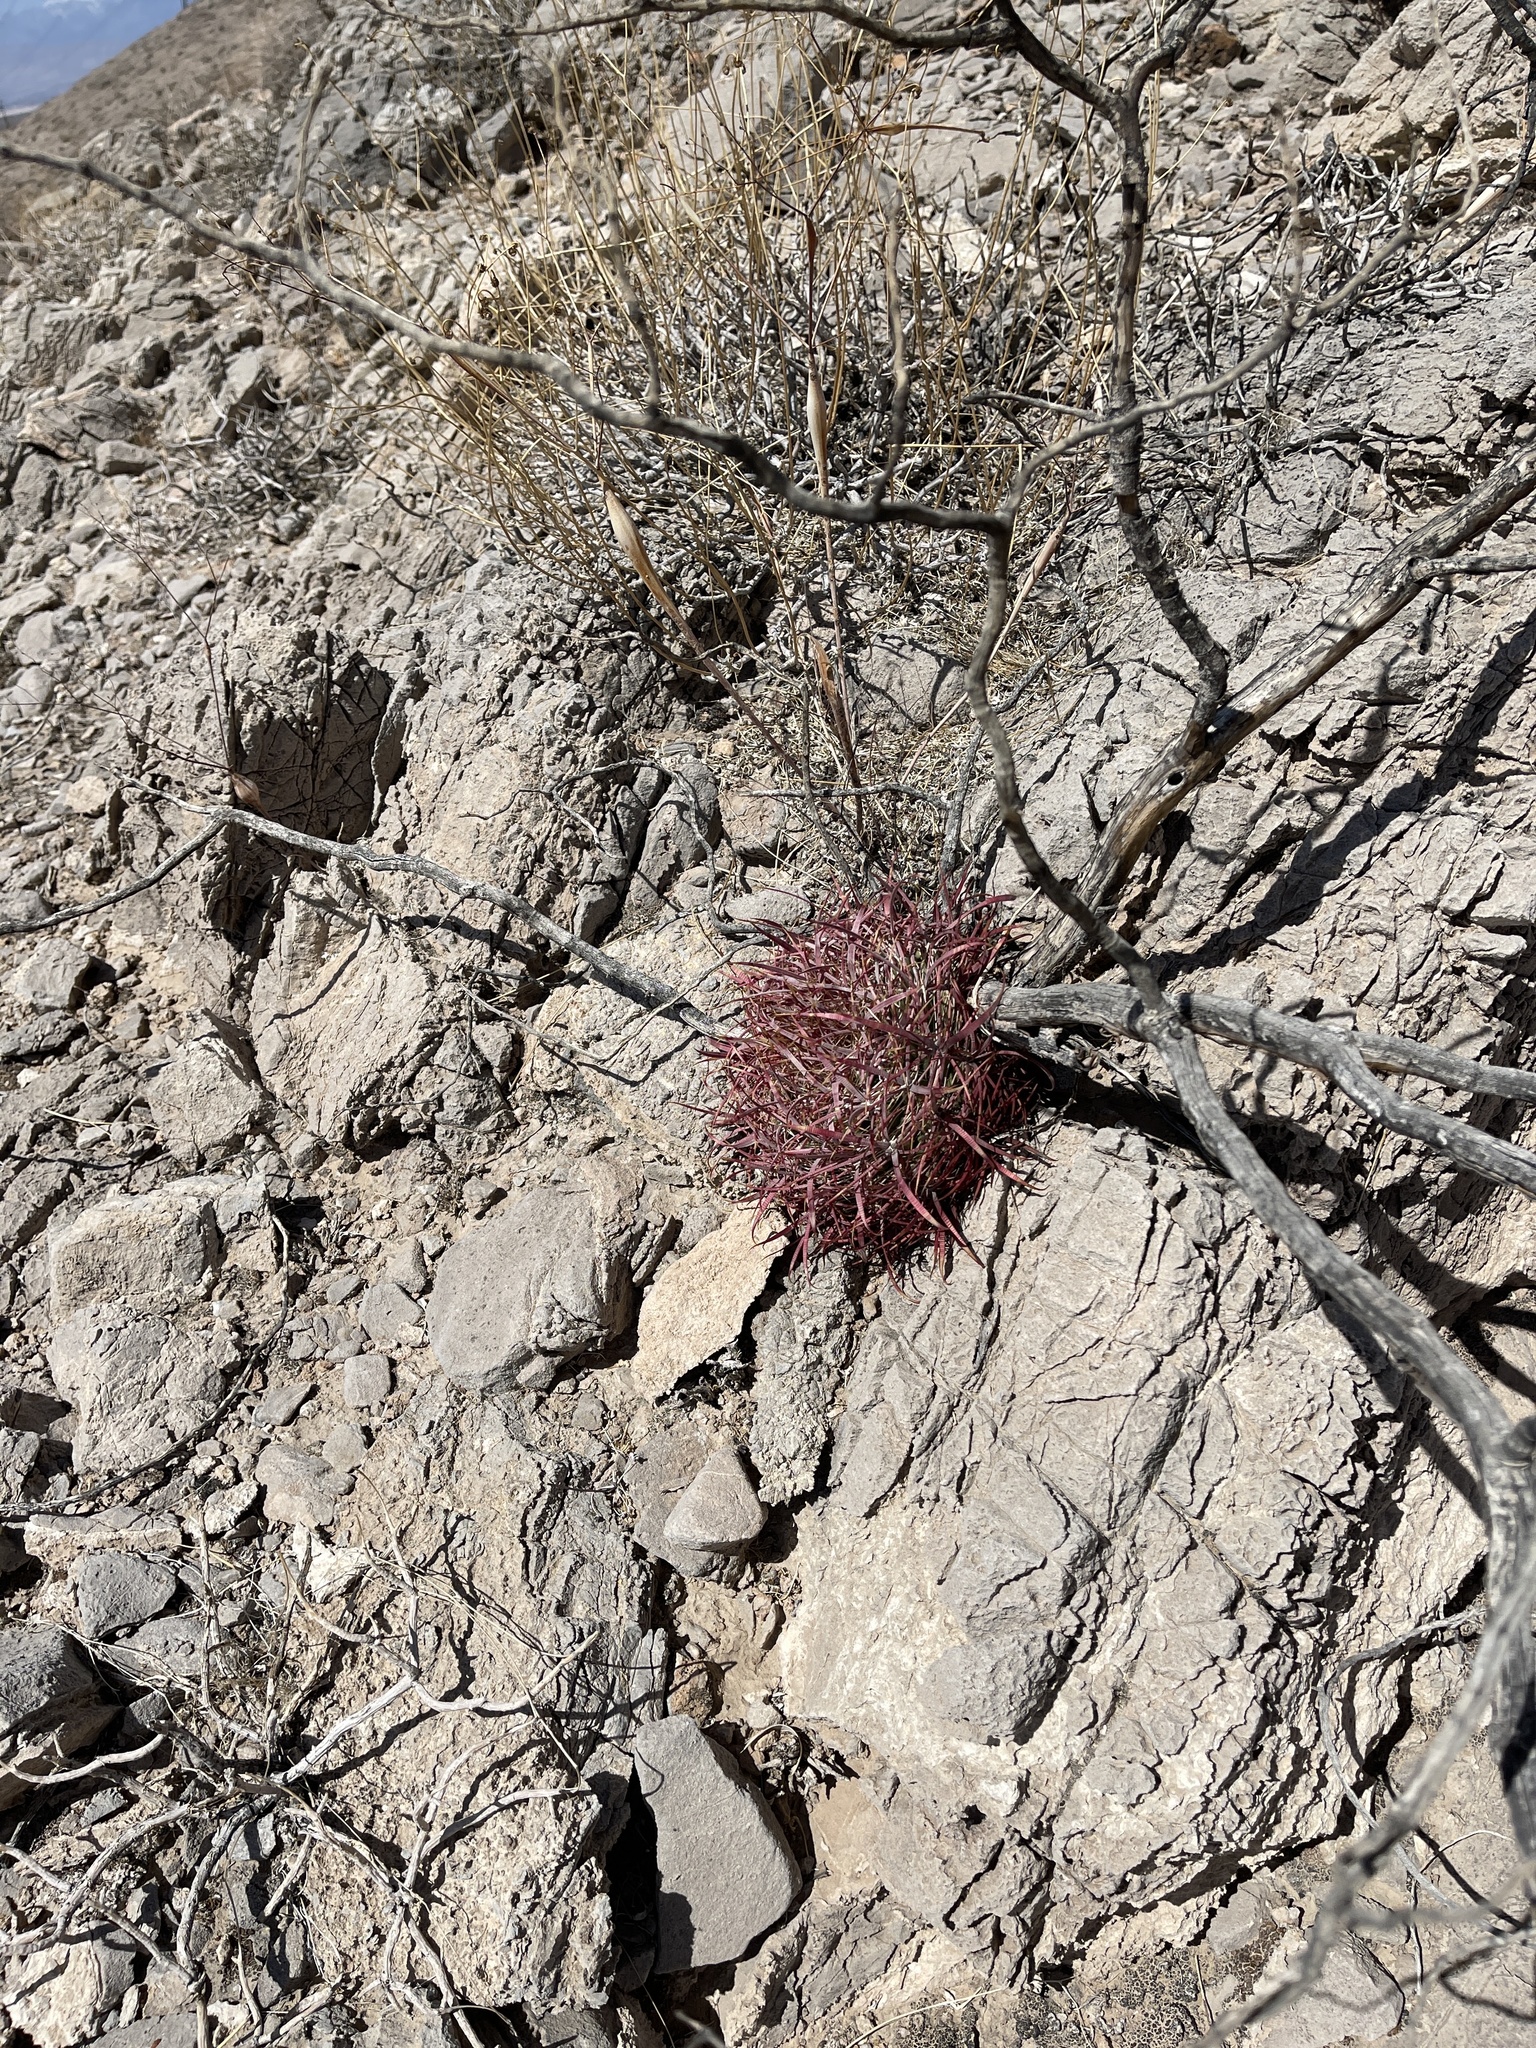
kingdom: Plantae
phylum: Tracheophyta
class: Magnoliopsida
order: Caryophyllales
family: Cactaceae
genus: Ferocactus
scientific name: Ferocactus cylindraceus
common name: California barrel cactus
